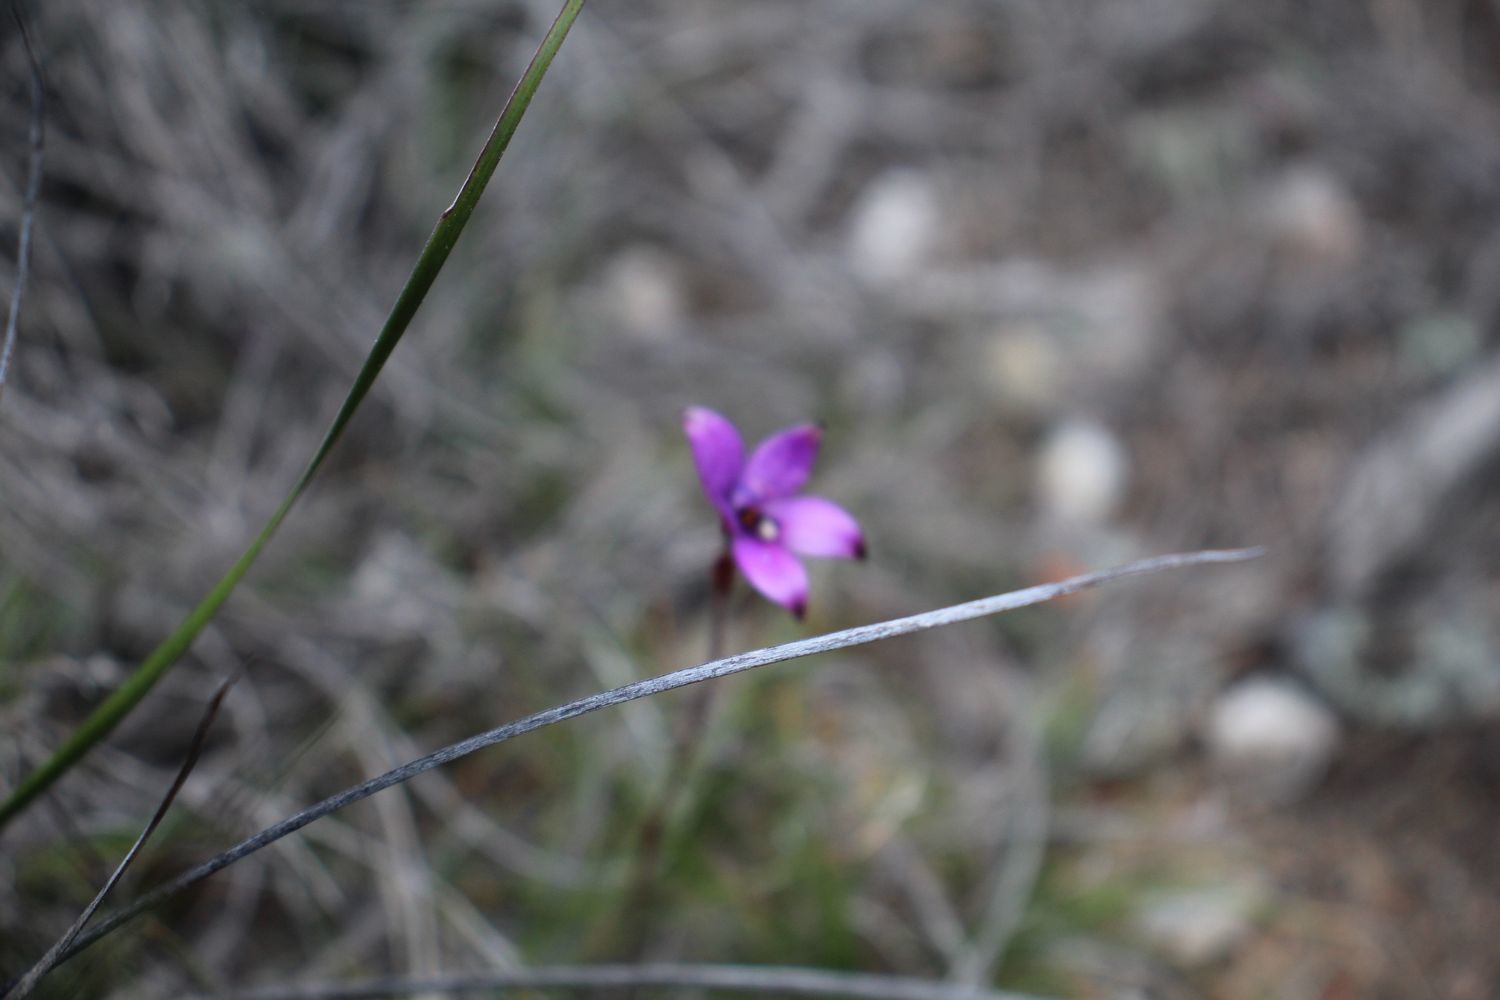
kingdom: Plantae
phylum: Tracheophyta
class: Liliopsida
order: Asparagales
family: Orchidaceae
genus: Caladenia
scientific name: Caladenia brunonis
